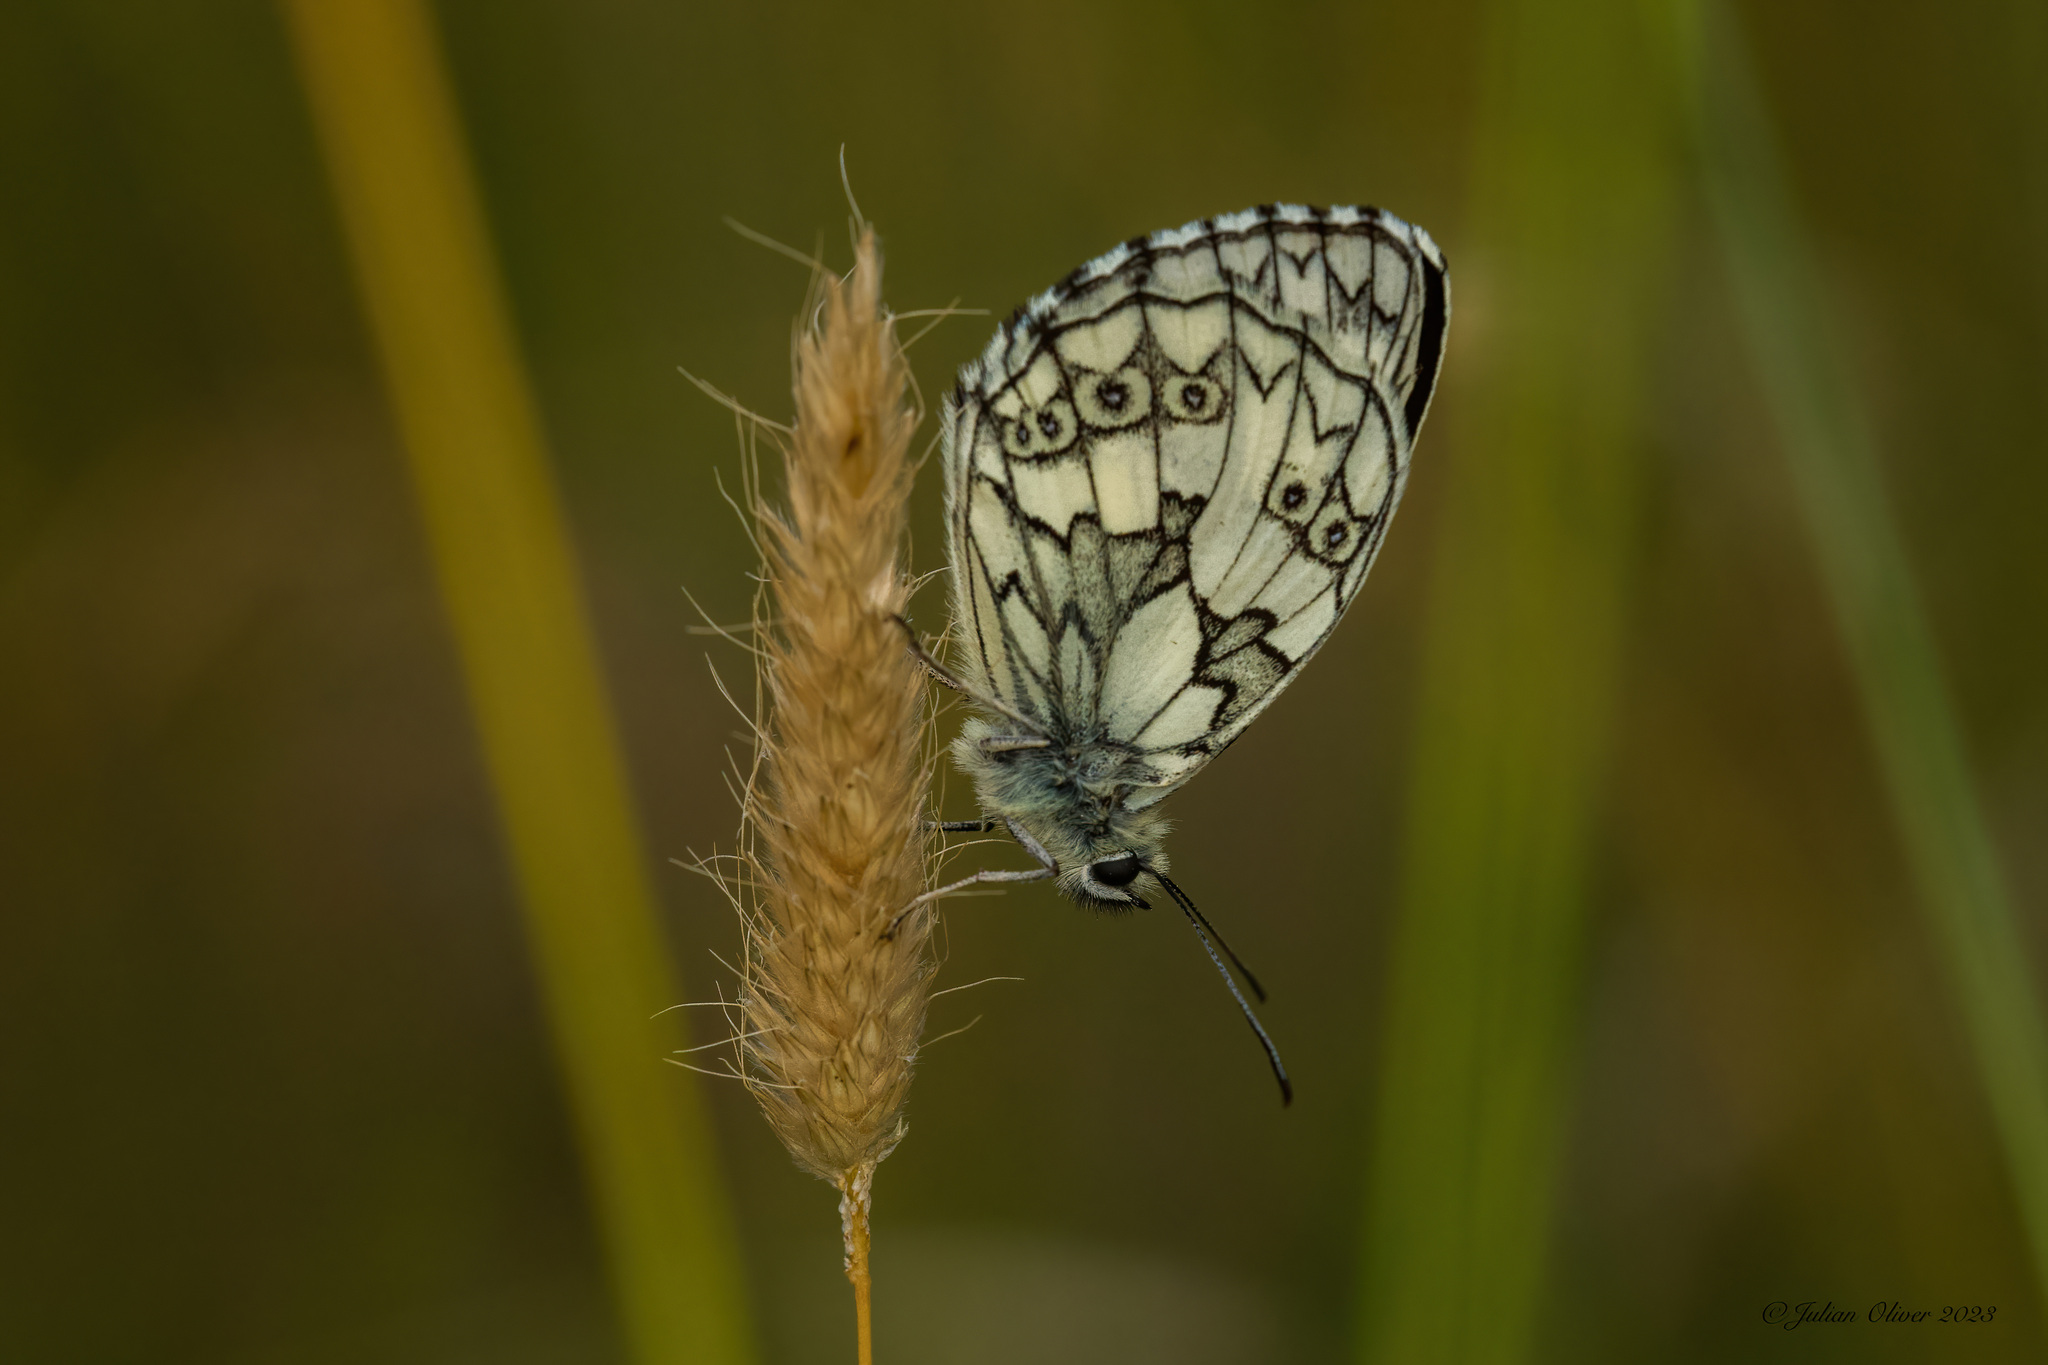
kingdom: Animalia
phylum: Arthropoda
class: Insecta
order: Lepidoptera
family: Nymphalidae
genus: Melanargia
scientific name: Melanargia galathea
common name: Marbled white
